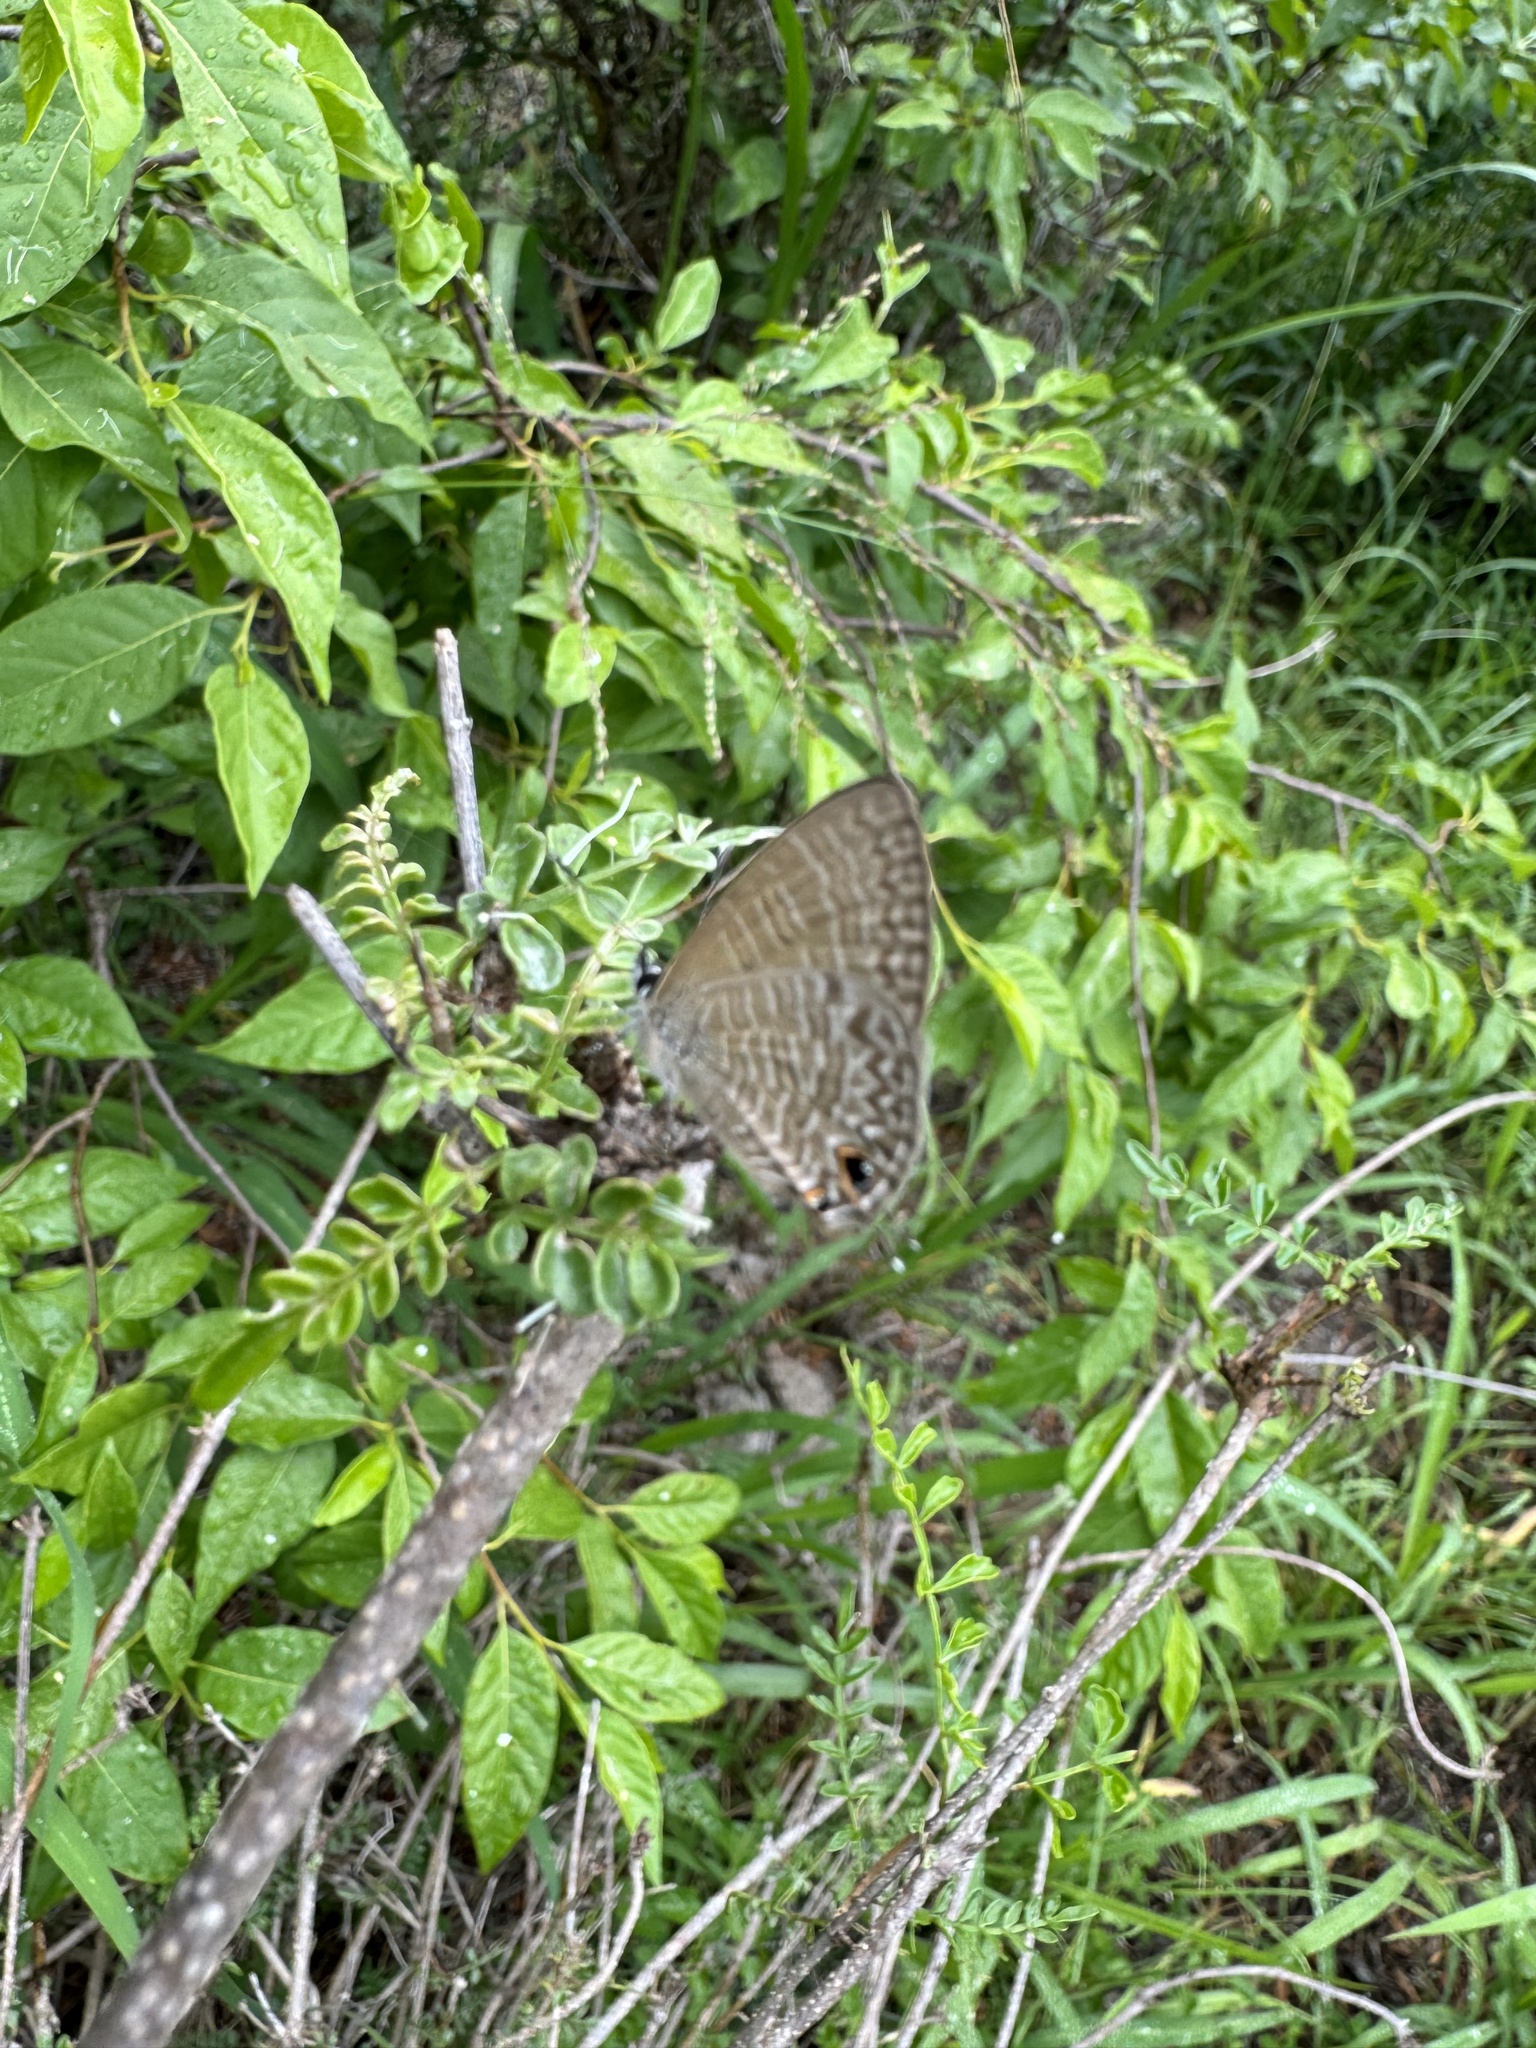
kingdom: Animalia
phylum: Arthropoda
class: Insecta
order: Lepidoptera
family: Lycaenidae
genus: Nacaduba
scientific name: Nacaduba berenice
